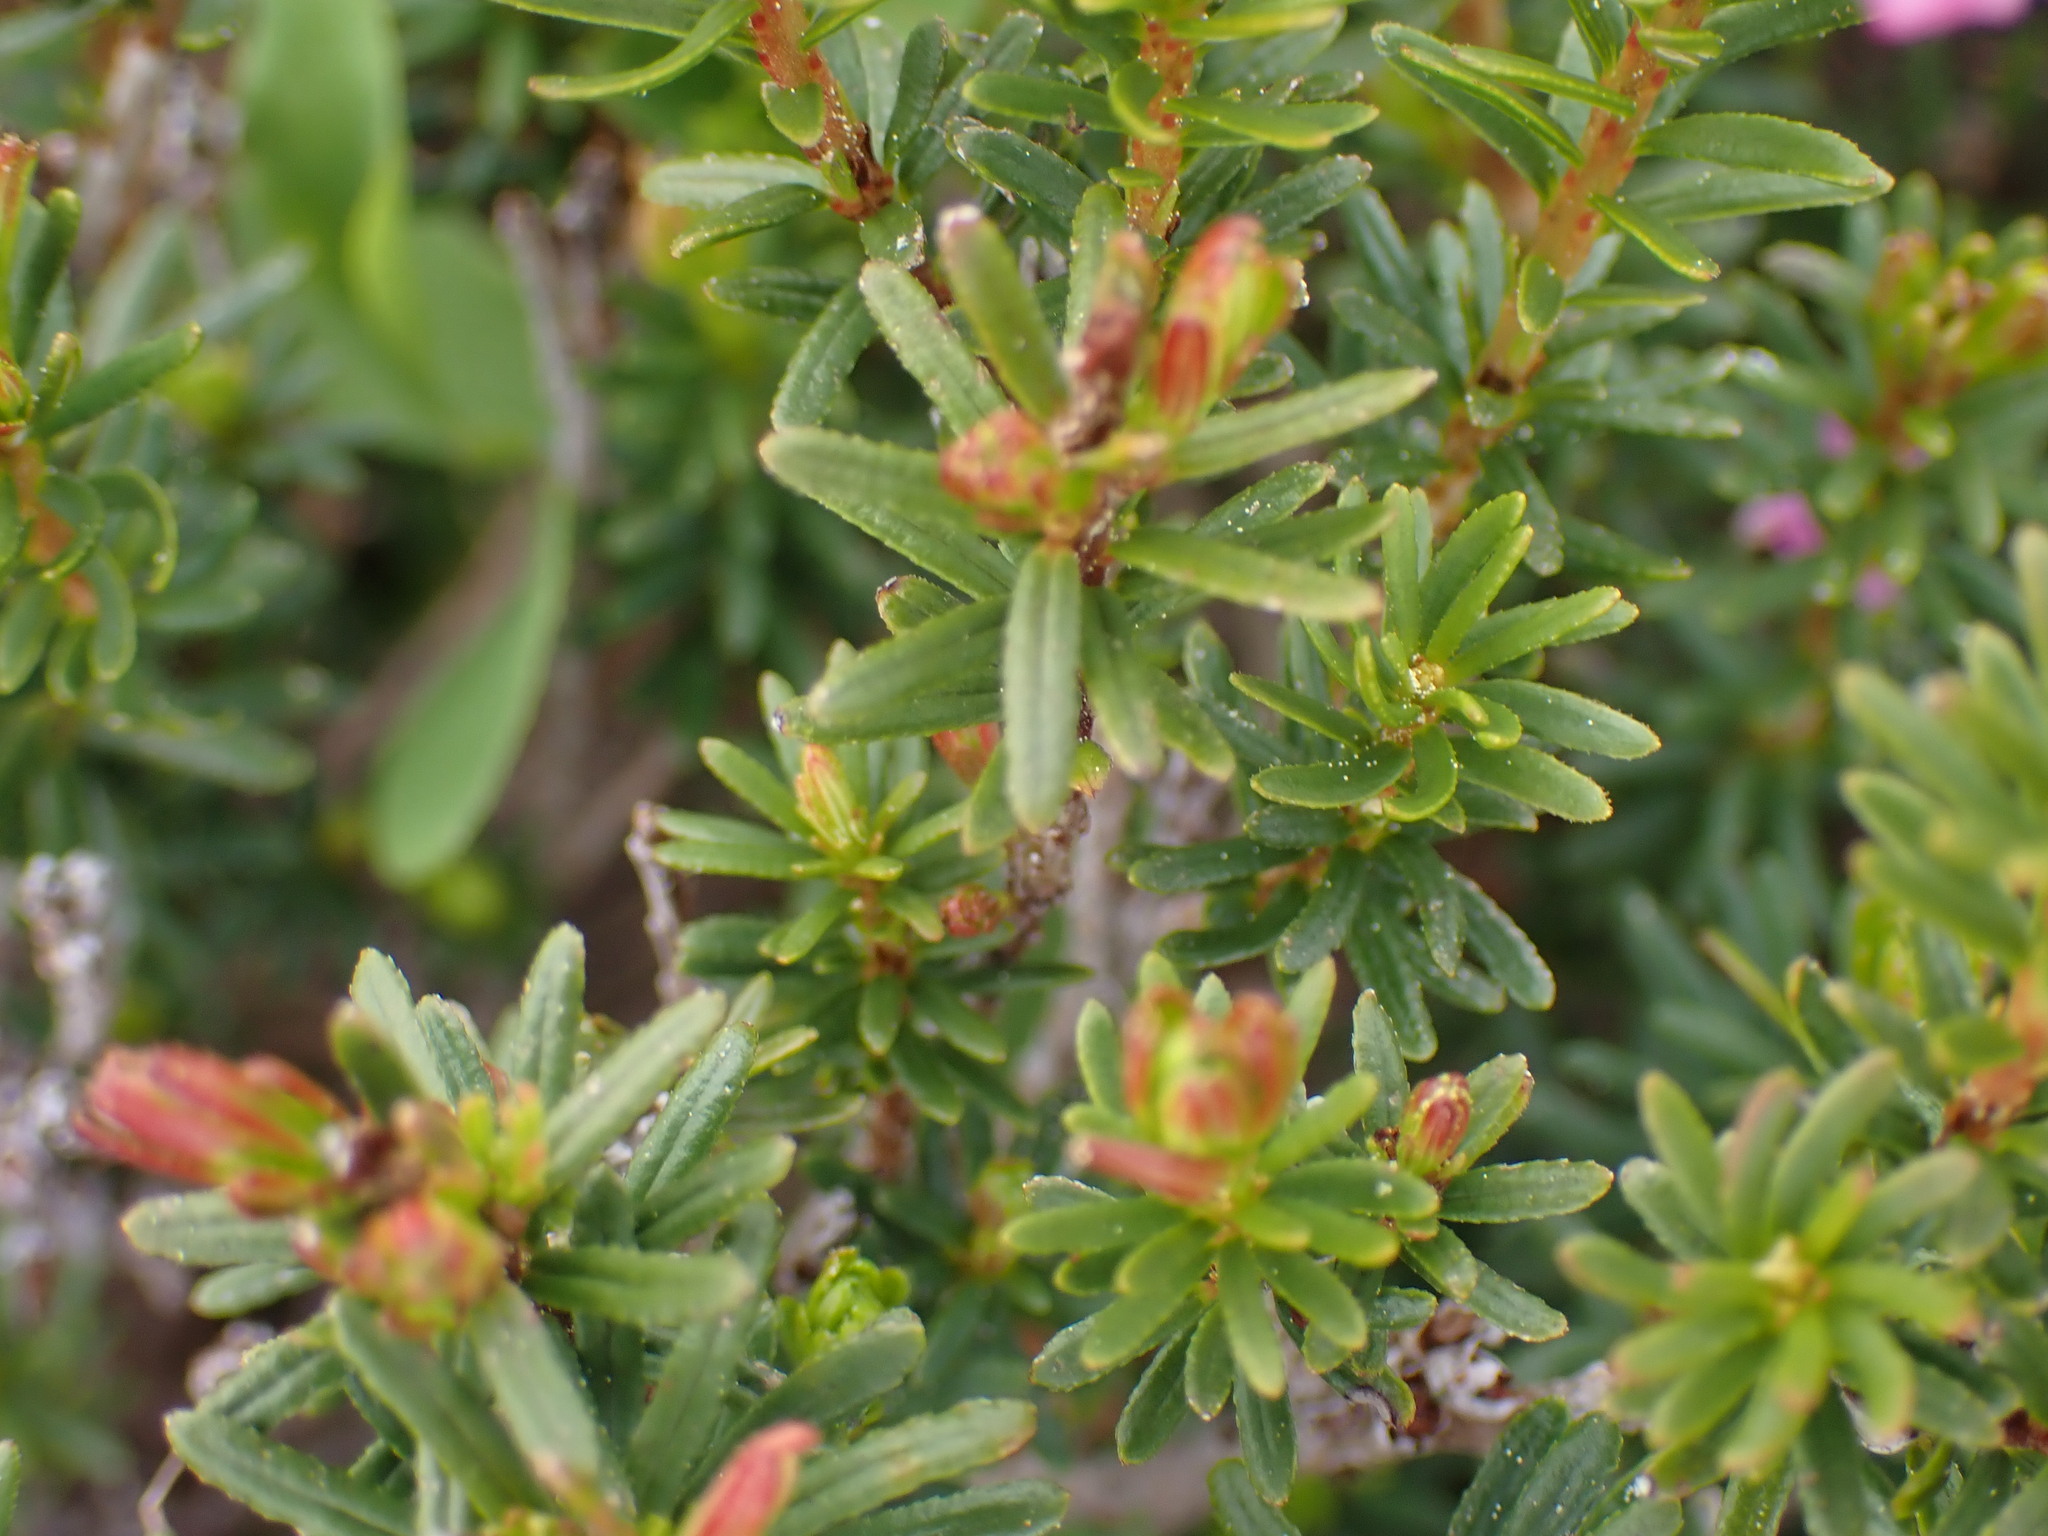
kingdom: Plantae
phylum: Tracheophyta
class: Magnoliopsida
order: Ericales
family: Ericaceae
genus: Phyllodoce
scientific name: Phyllodoce empetriformis
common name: Pink mountain heather
